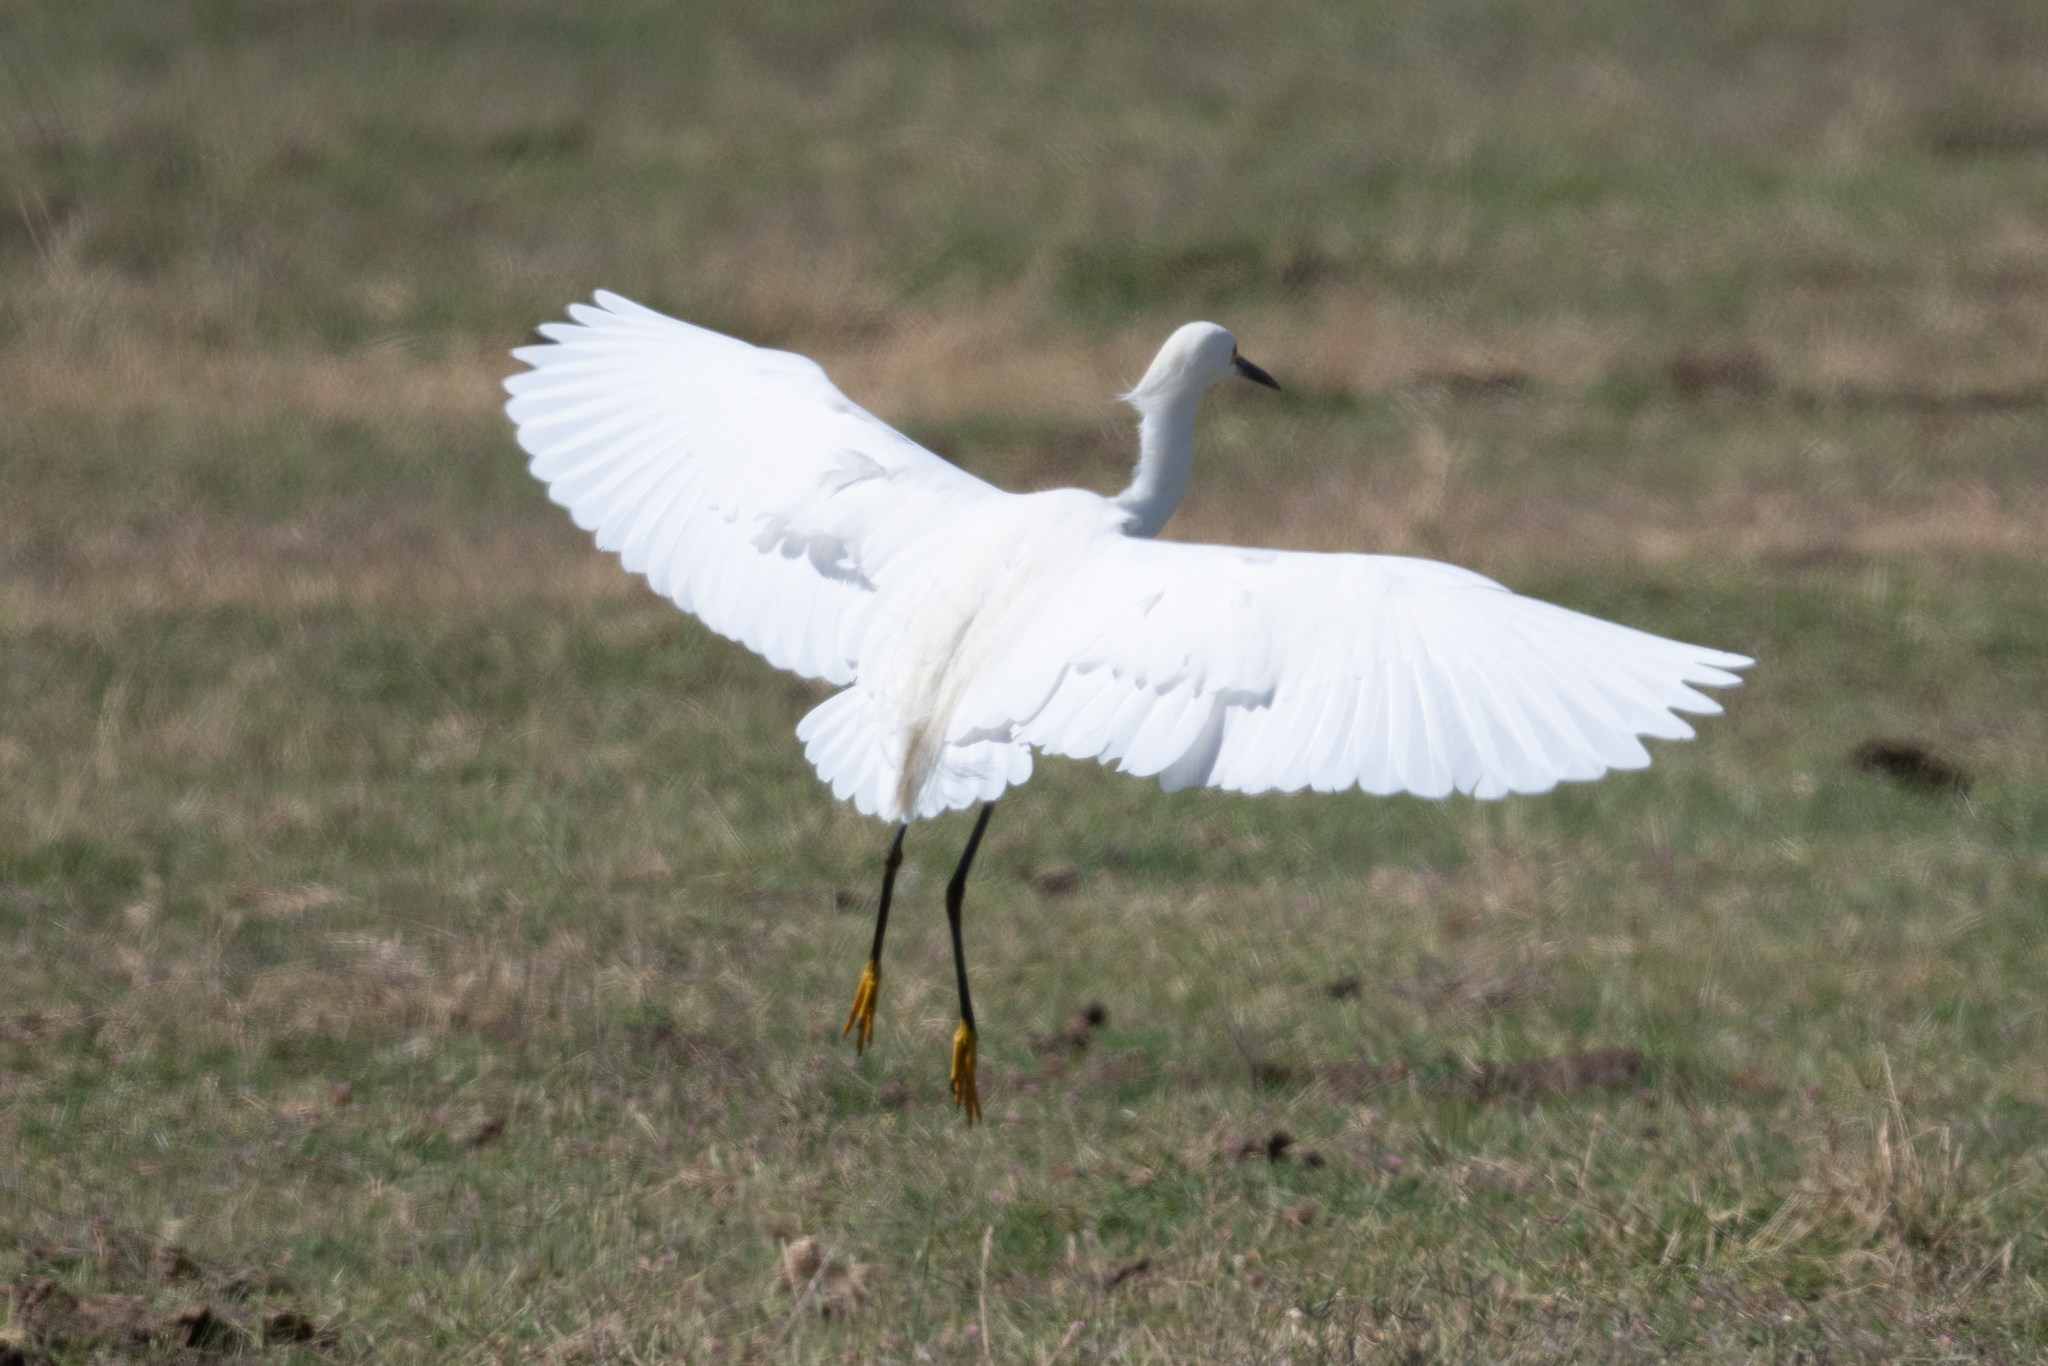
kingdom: Animalia
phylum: Chordata
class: Aves
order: Pelecaniformes
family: Ardeidae
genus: Egretta
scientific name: Egretta thula
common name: Snowy egret
